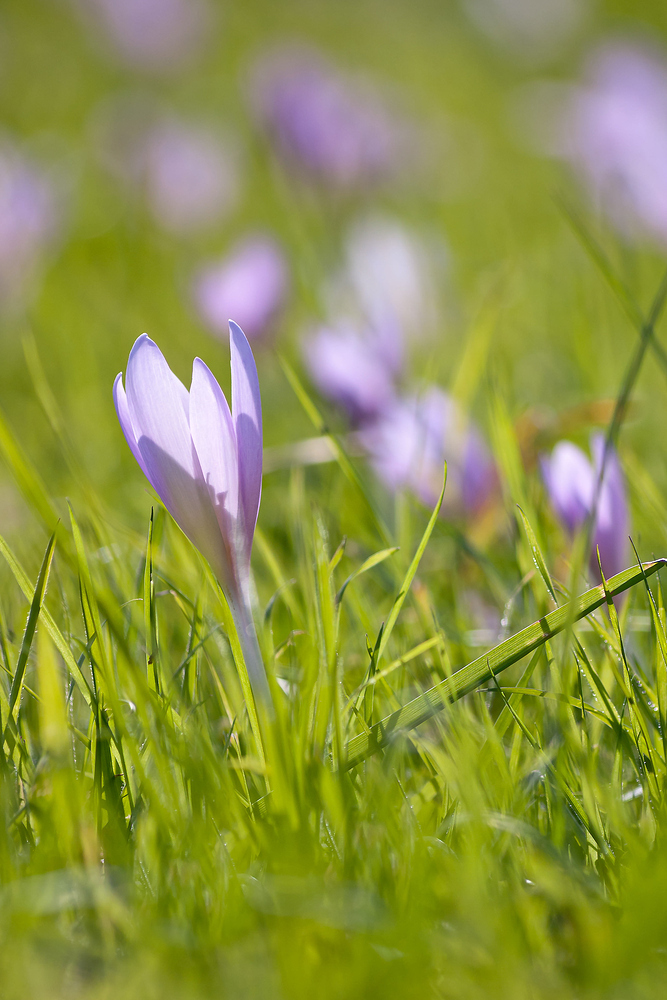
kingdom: Plantae
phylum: Tracheophyta
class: Liliopsida
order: Liliales
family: Colchicaceae
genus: Colchicum
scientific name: Colchicum autumnale
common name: Autumn crocus
